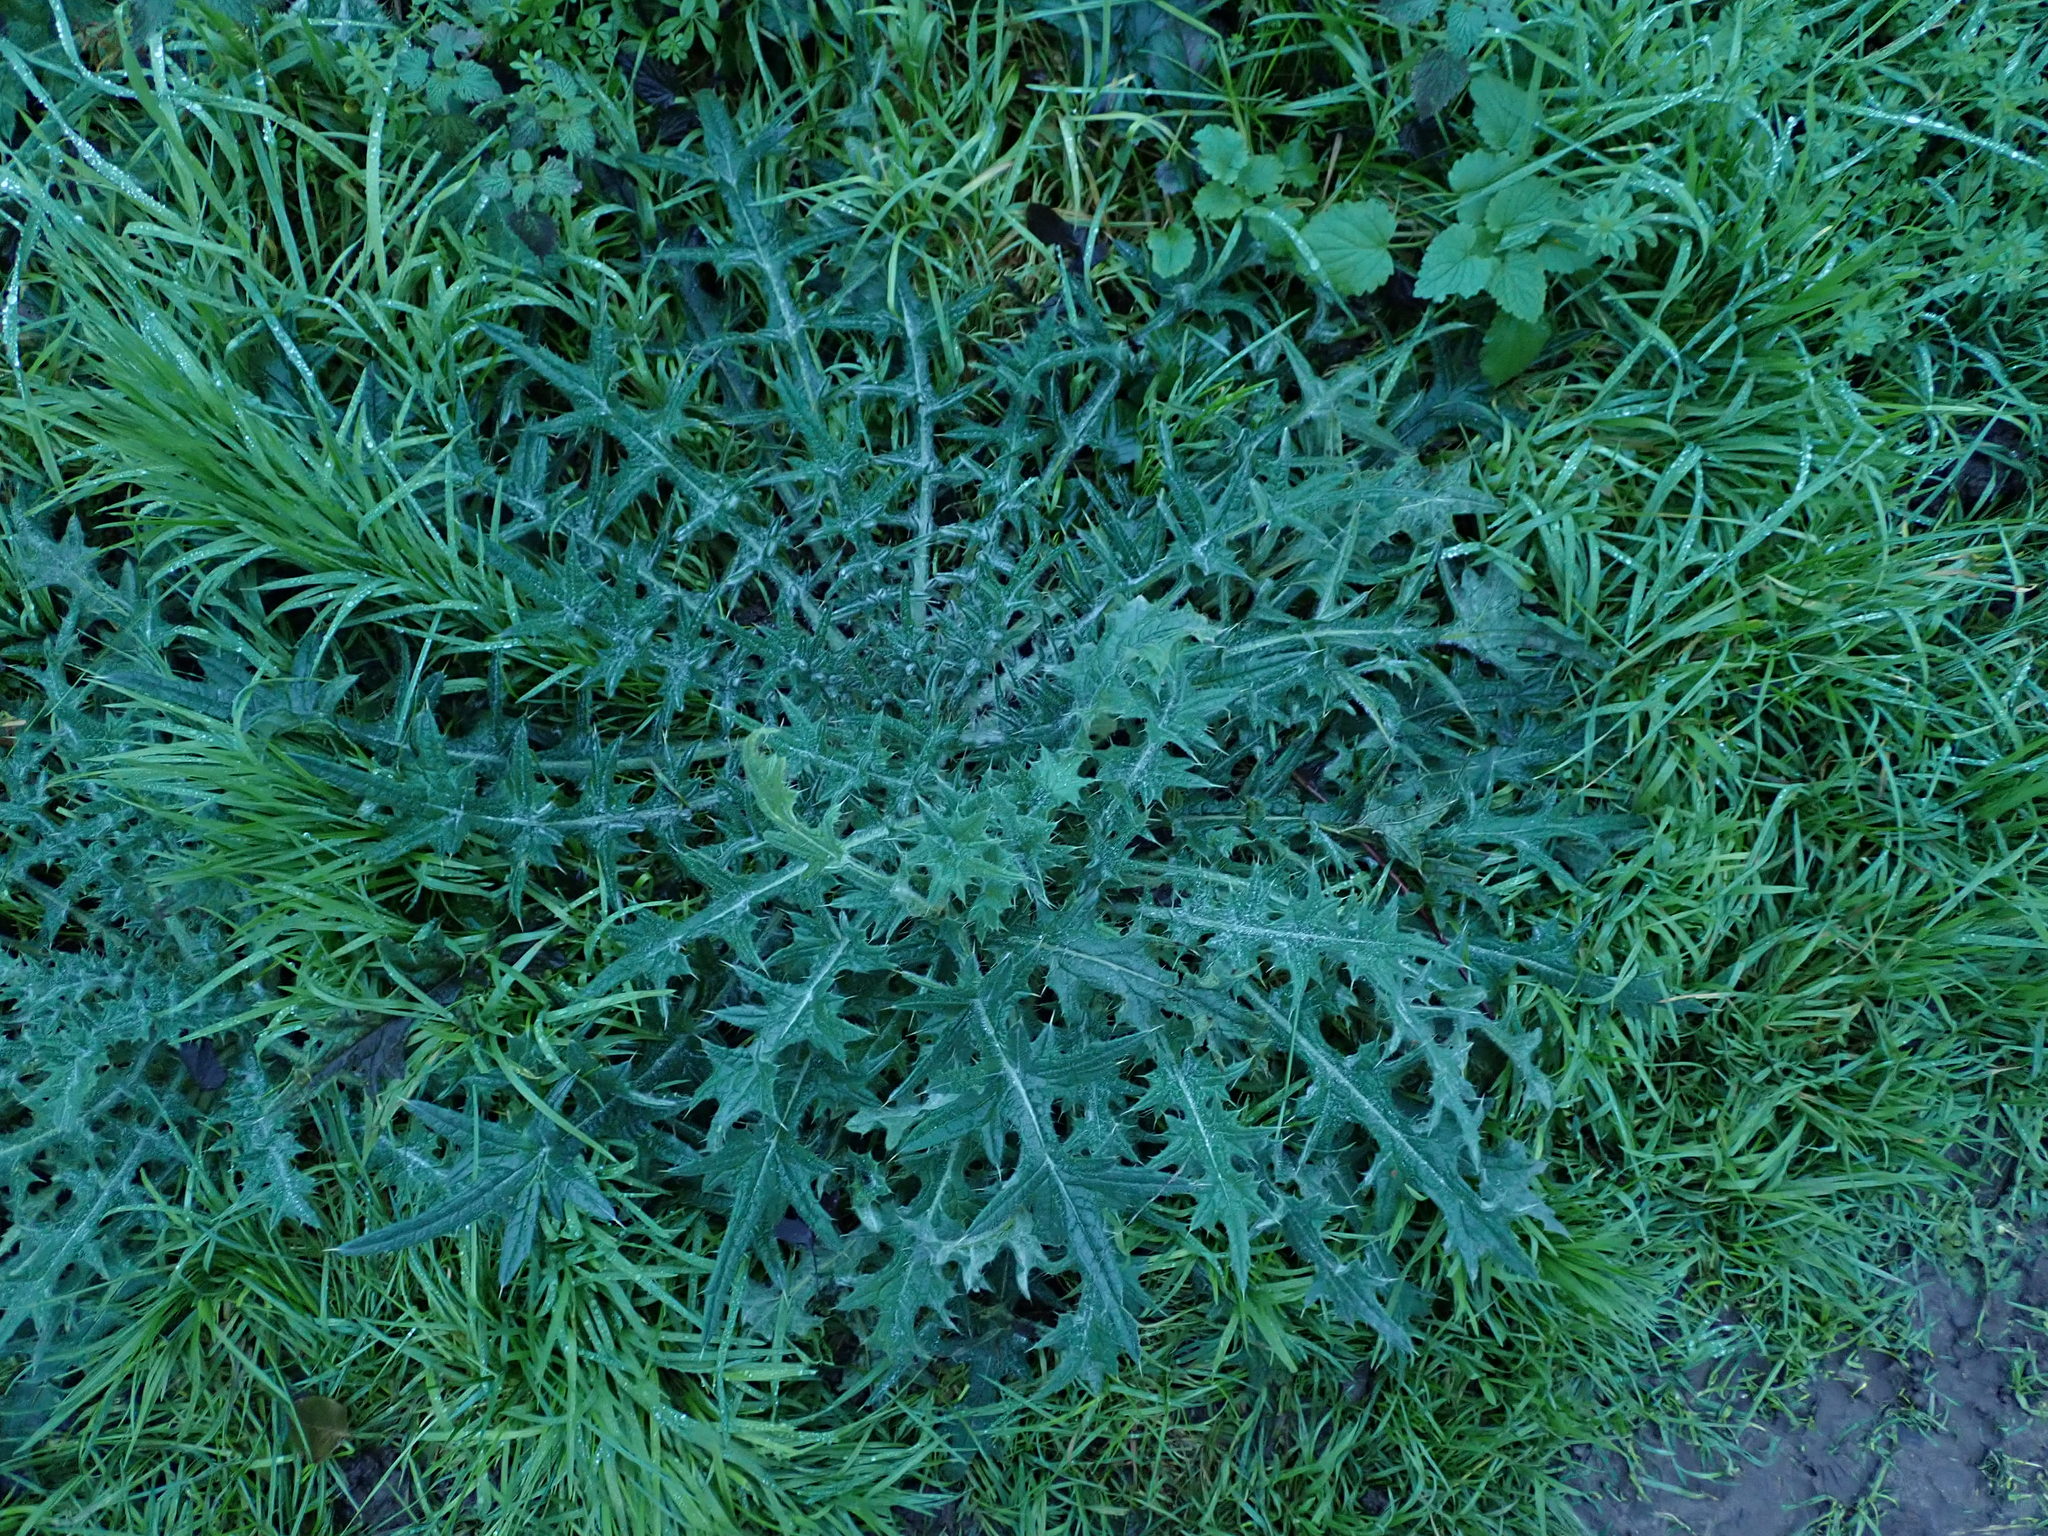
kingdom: Plantae
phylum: Tracheophyta
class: Magnoliopsida
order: Asterales
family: Asteraceae
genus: Cirsium
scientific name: Cirsium vulgare
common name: Bull thistle
